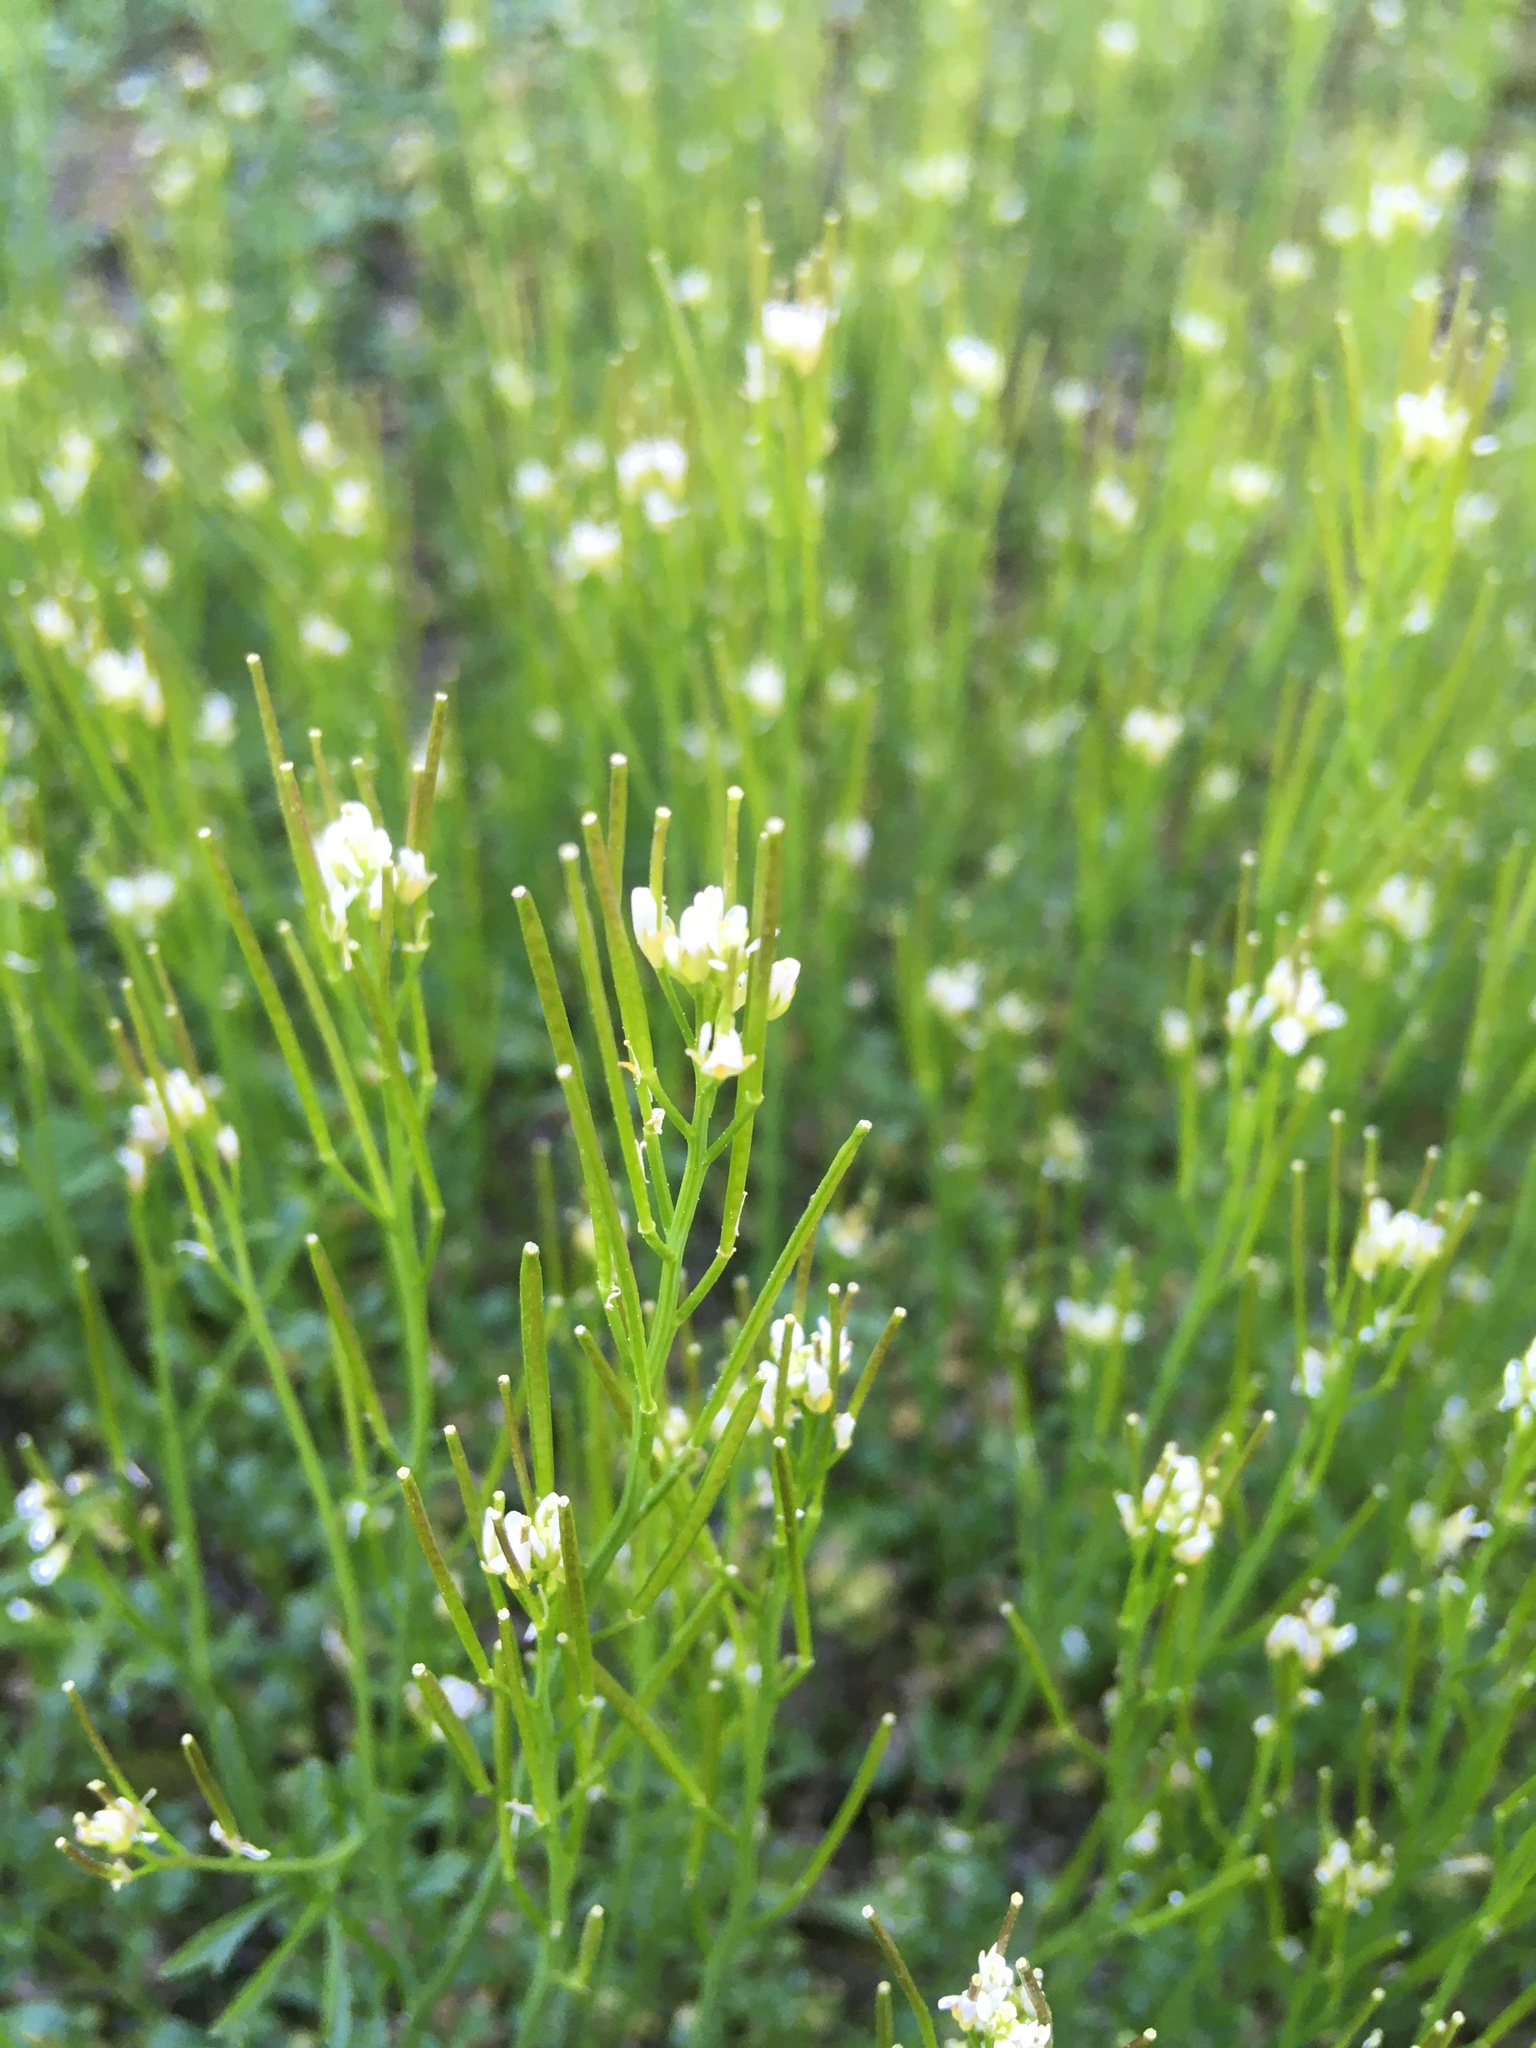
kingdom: Plantae
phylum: Tracheophyta
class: Magnoliopsida
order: Brassicales
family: Brassicaceae
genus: Cardamine
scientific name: Cardamine hirsuta
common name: Hairy bittercress
